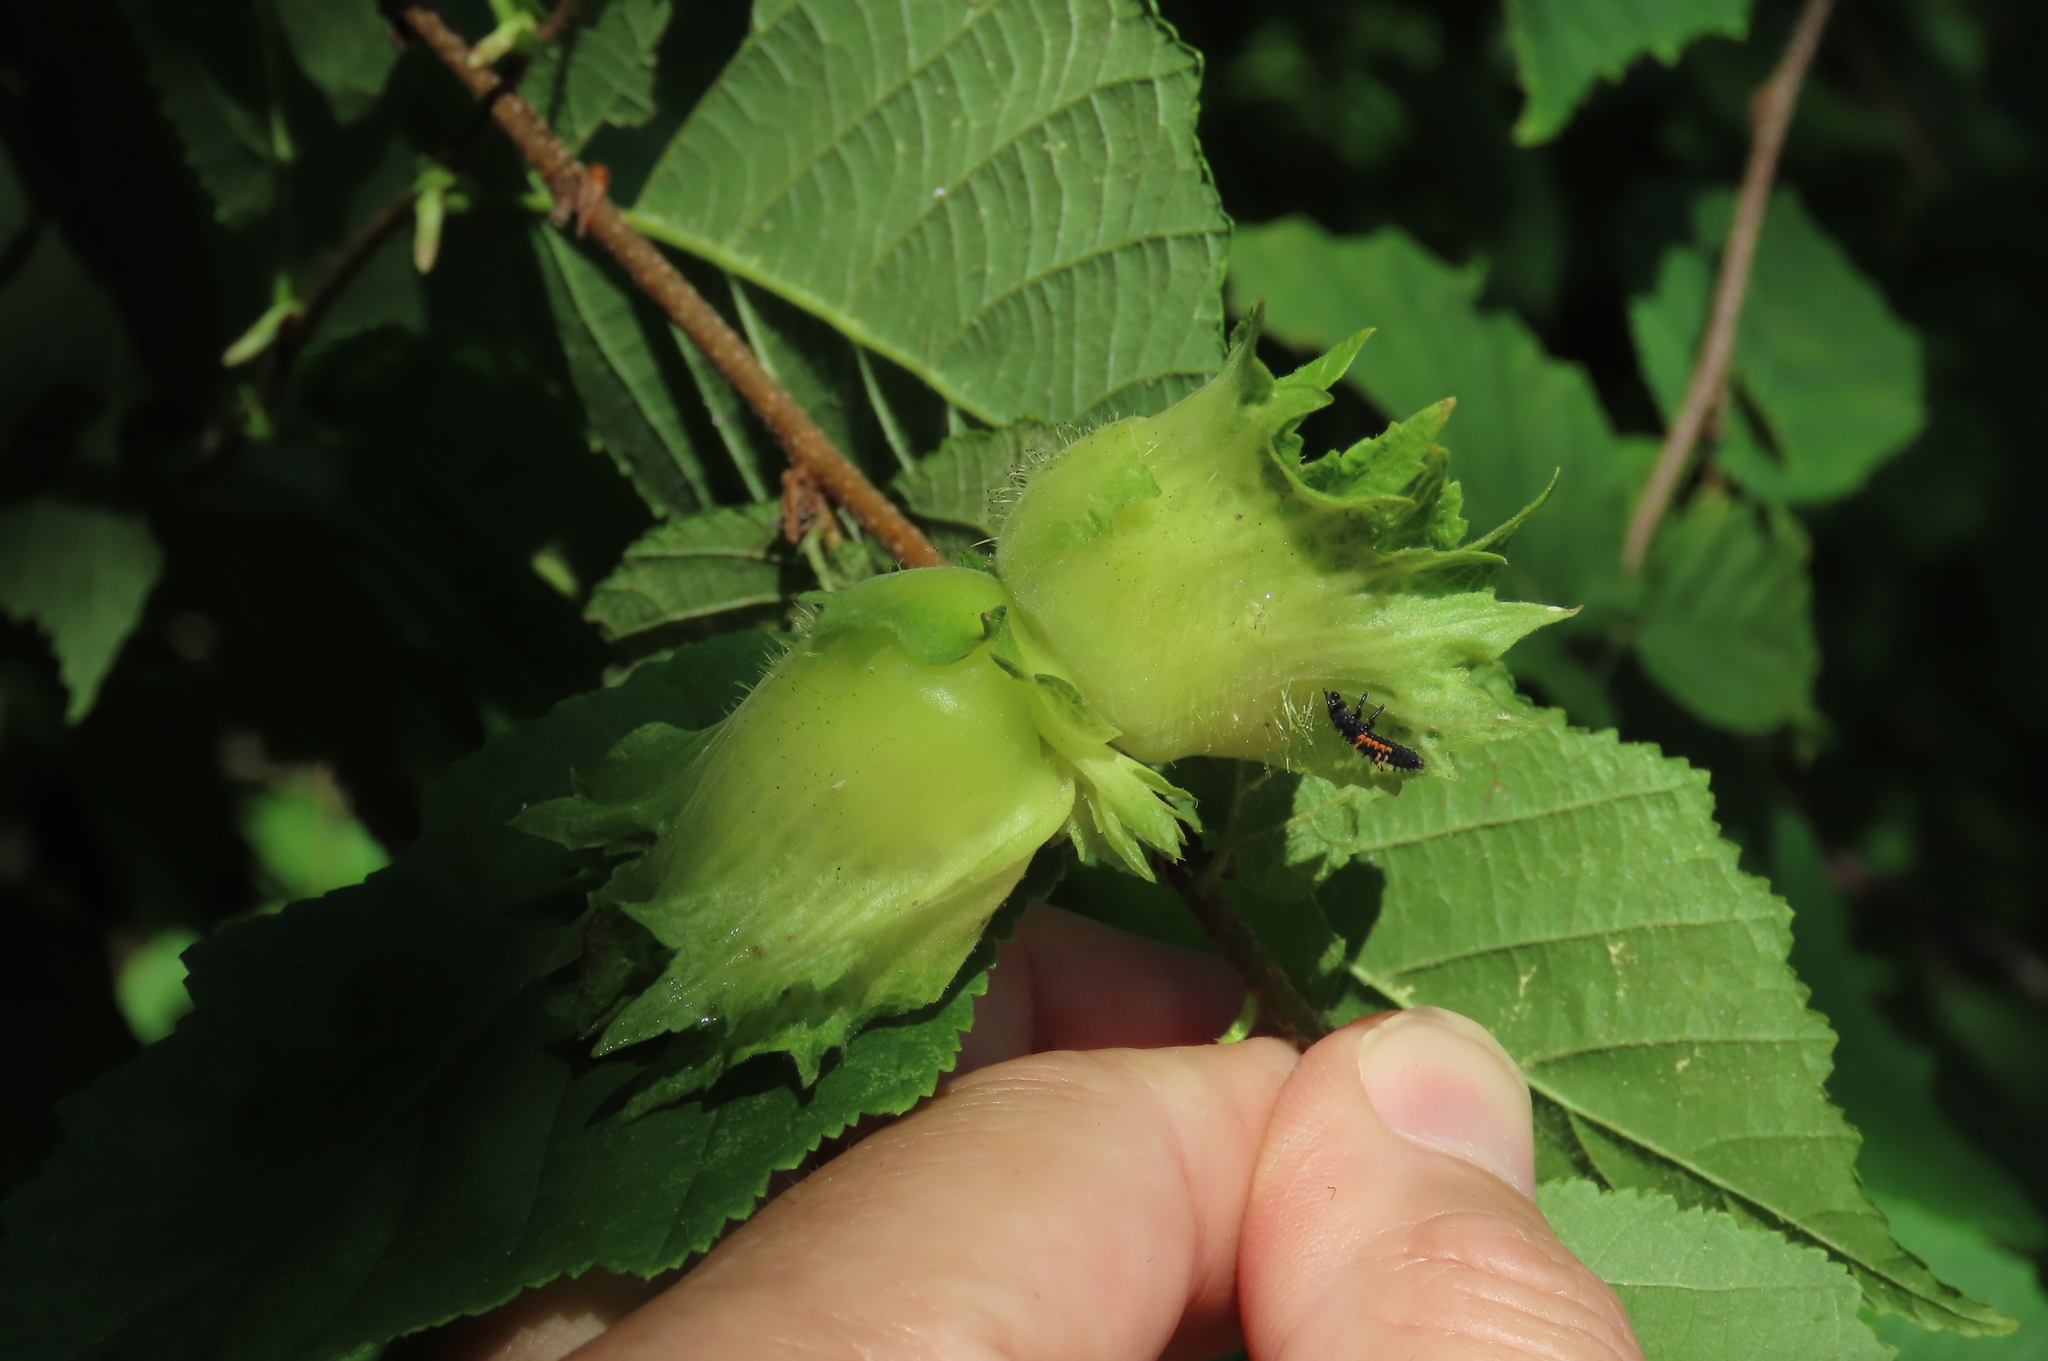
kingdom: Plantae
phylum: Tracheophyta
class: Magnoliopsida
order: Fagales
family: Betulaceae
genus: Corylus
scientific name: Corylus americana
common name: American hazel
